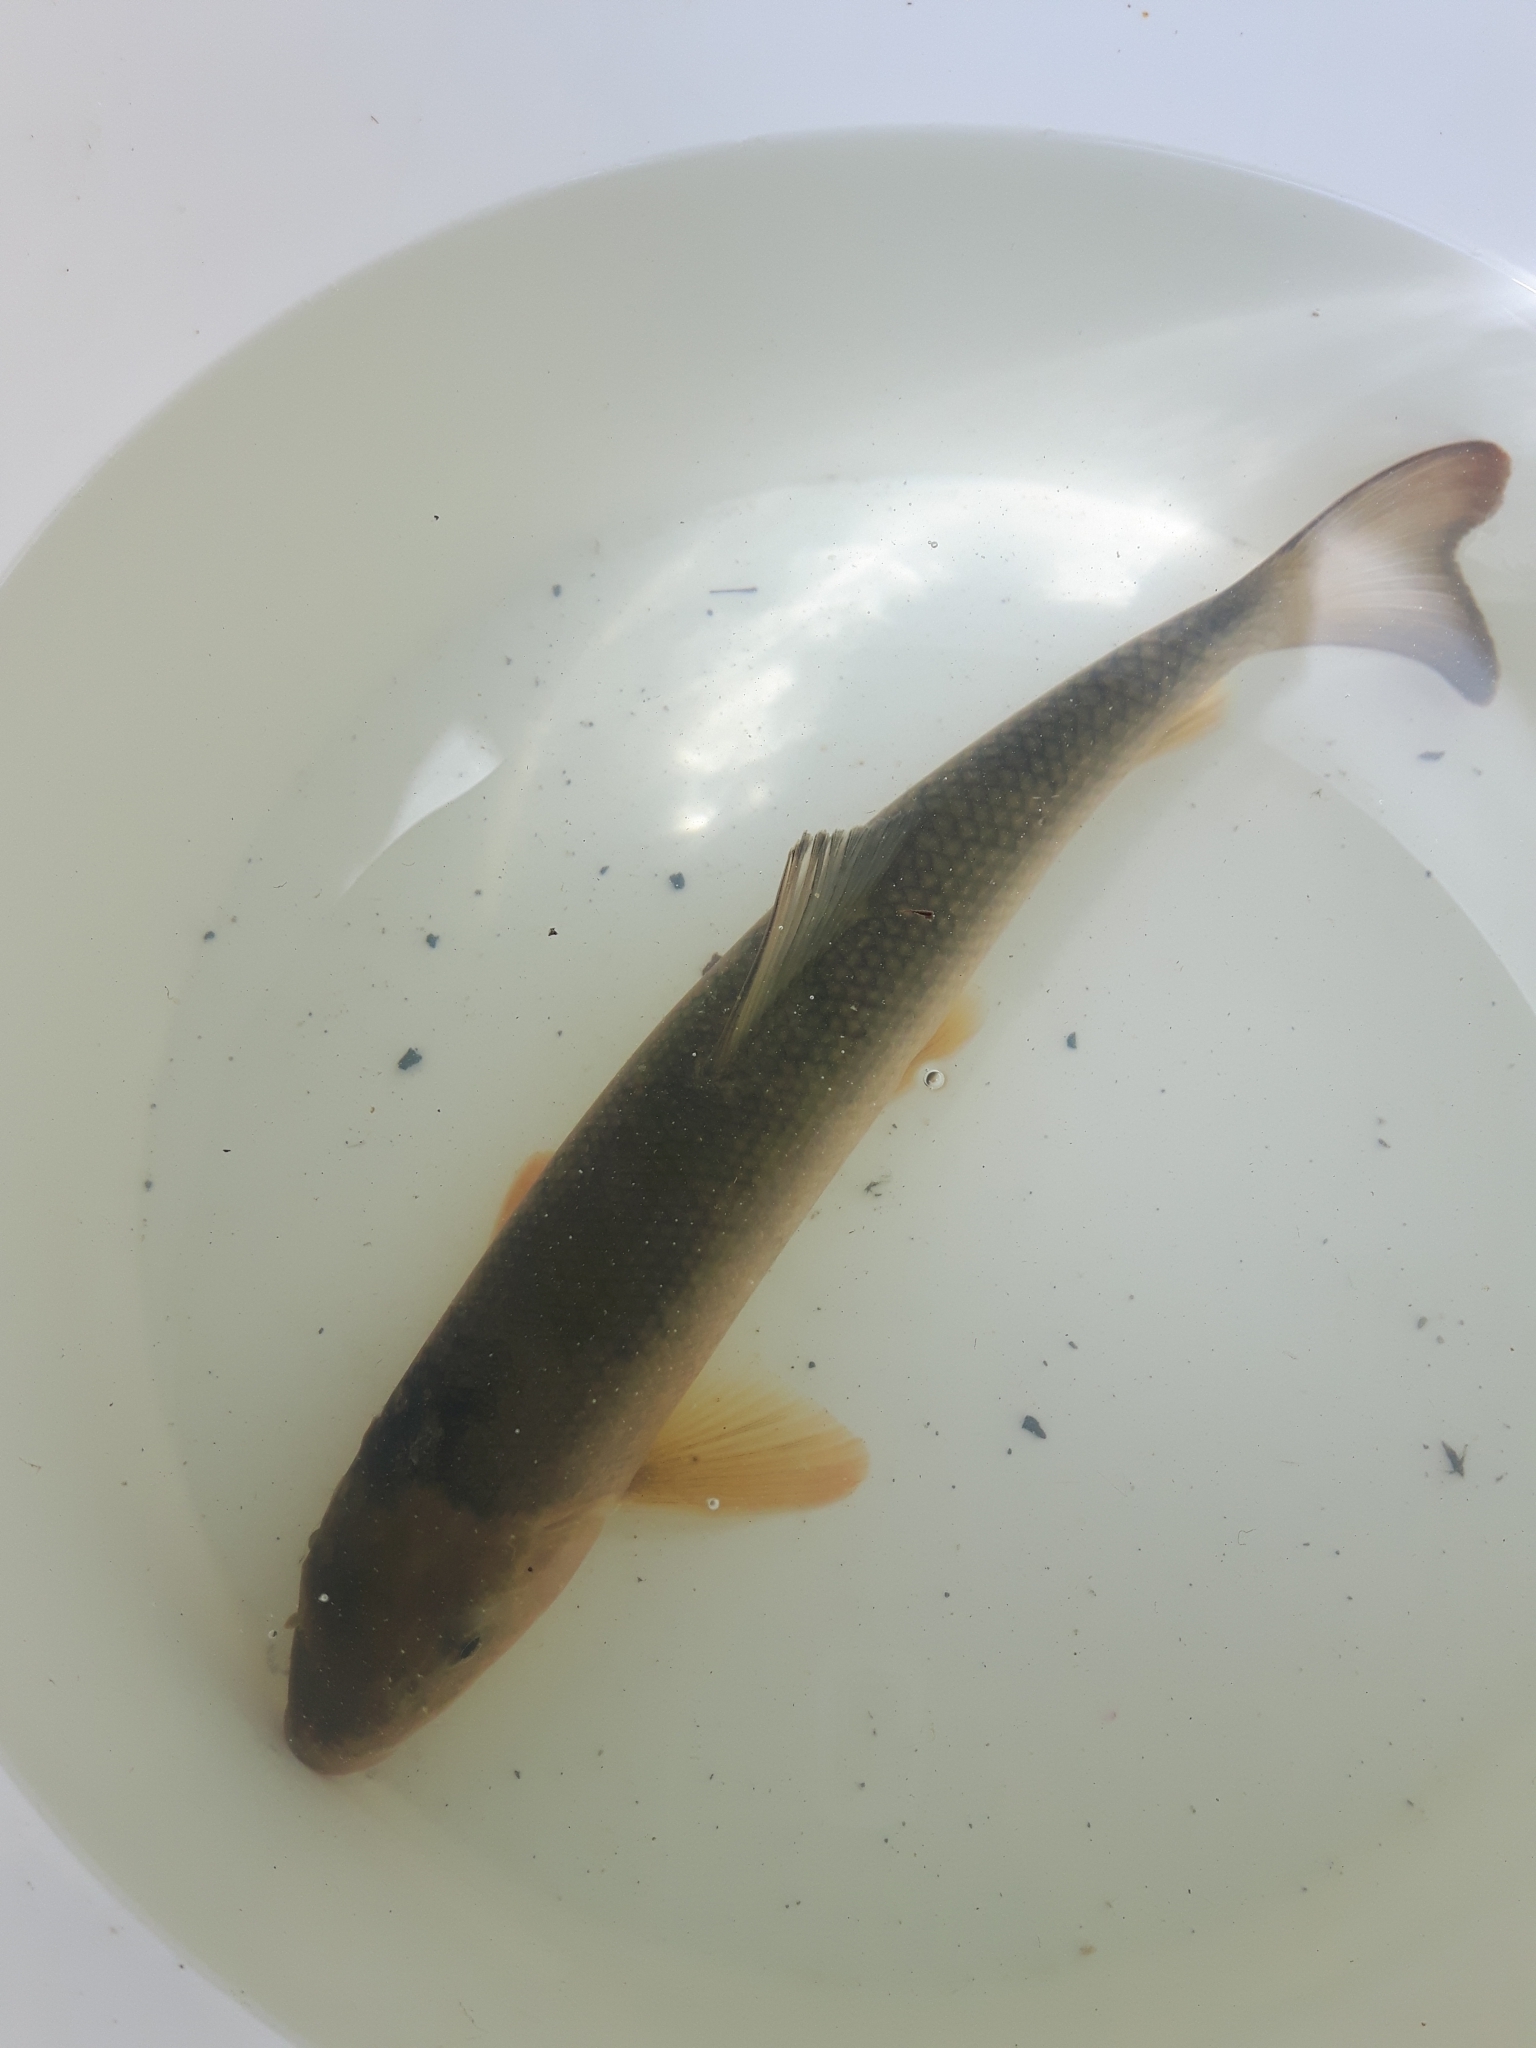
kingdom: Animalia
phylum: Chordata
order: Cypriniformes
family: Catostomidae
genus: Catostomus
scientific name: Catostomus commersonii
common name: White sucker
